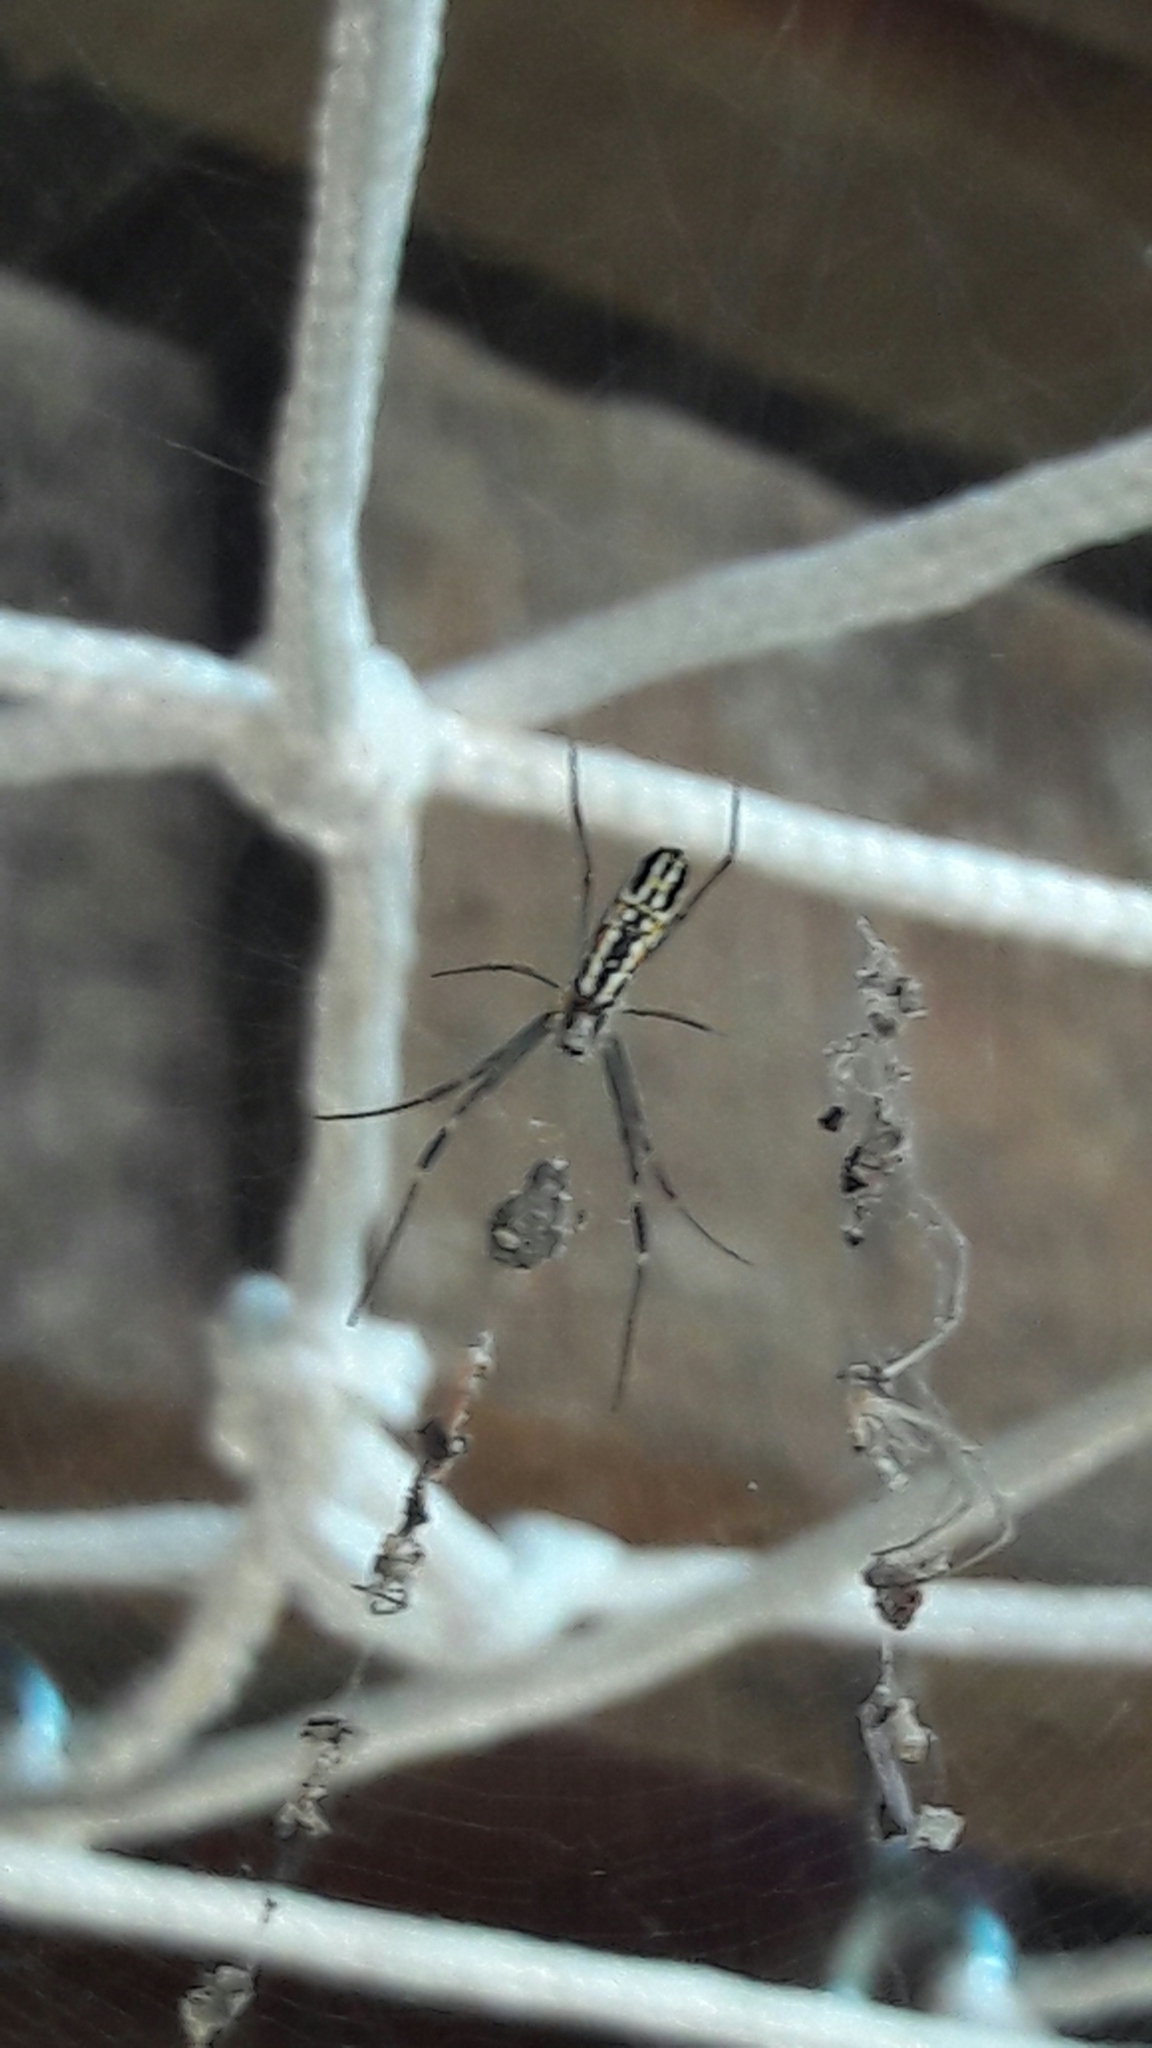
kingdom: Animalia
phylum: Arthropoda
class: Arachnida
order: Araneae
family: Araneidae
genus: Trichonephila
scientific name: Trichonephila clavipes
